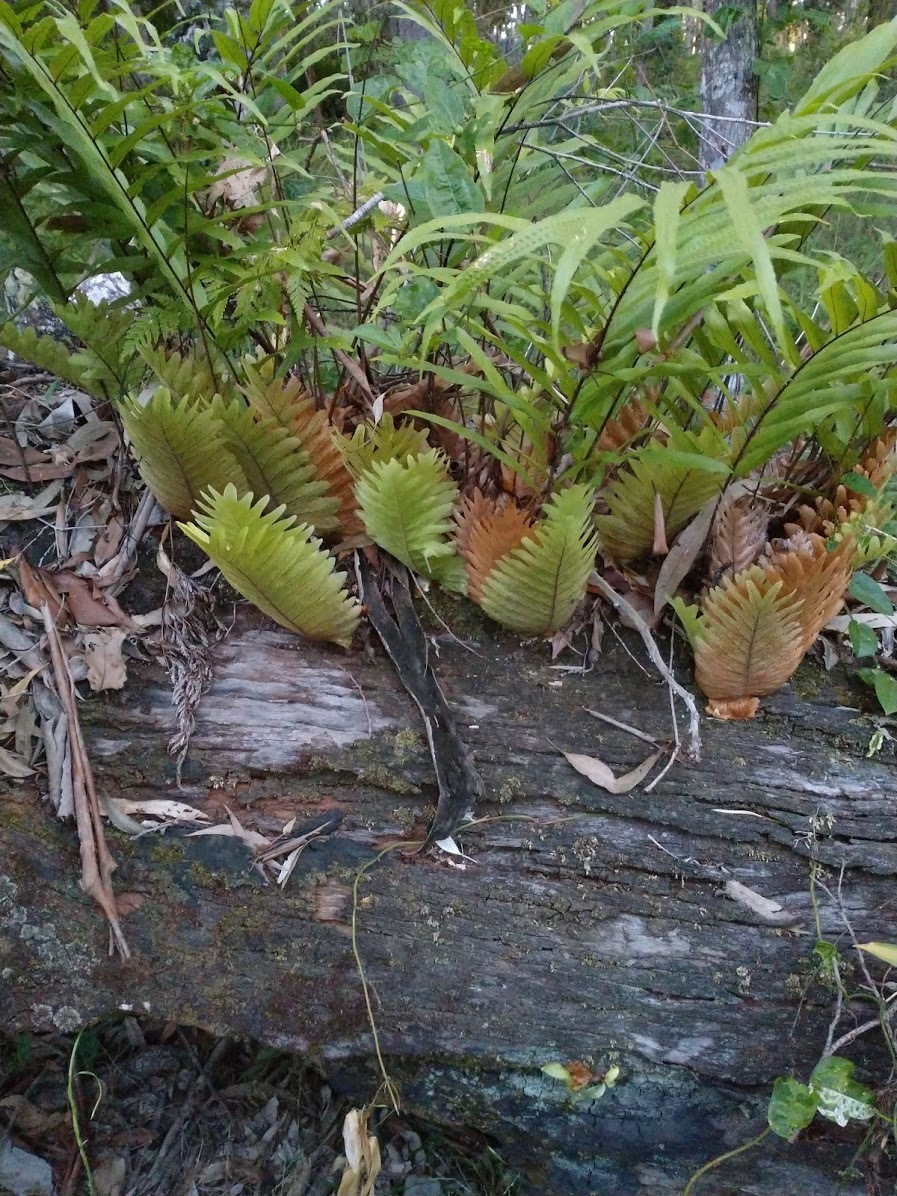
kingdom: Plantae
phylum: Tracheophyta
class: Polypodiopsida
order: Polypodiales
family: Polypodiaceae
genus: Drynaria
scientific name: Drynaria rigidula
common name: Basket fern
